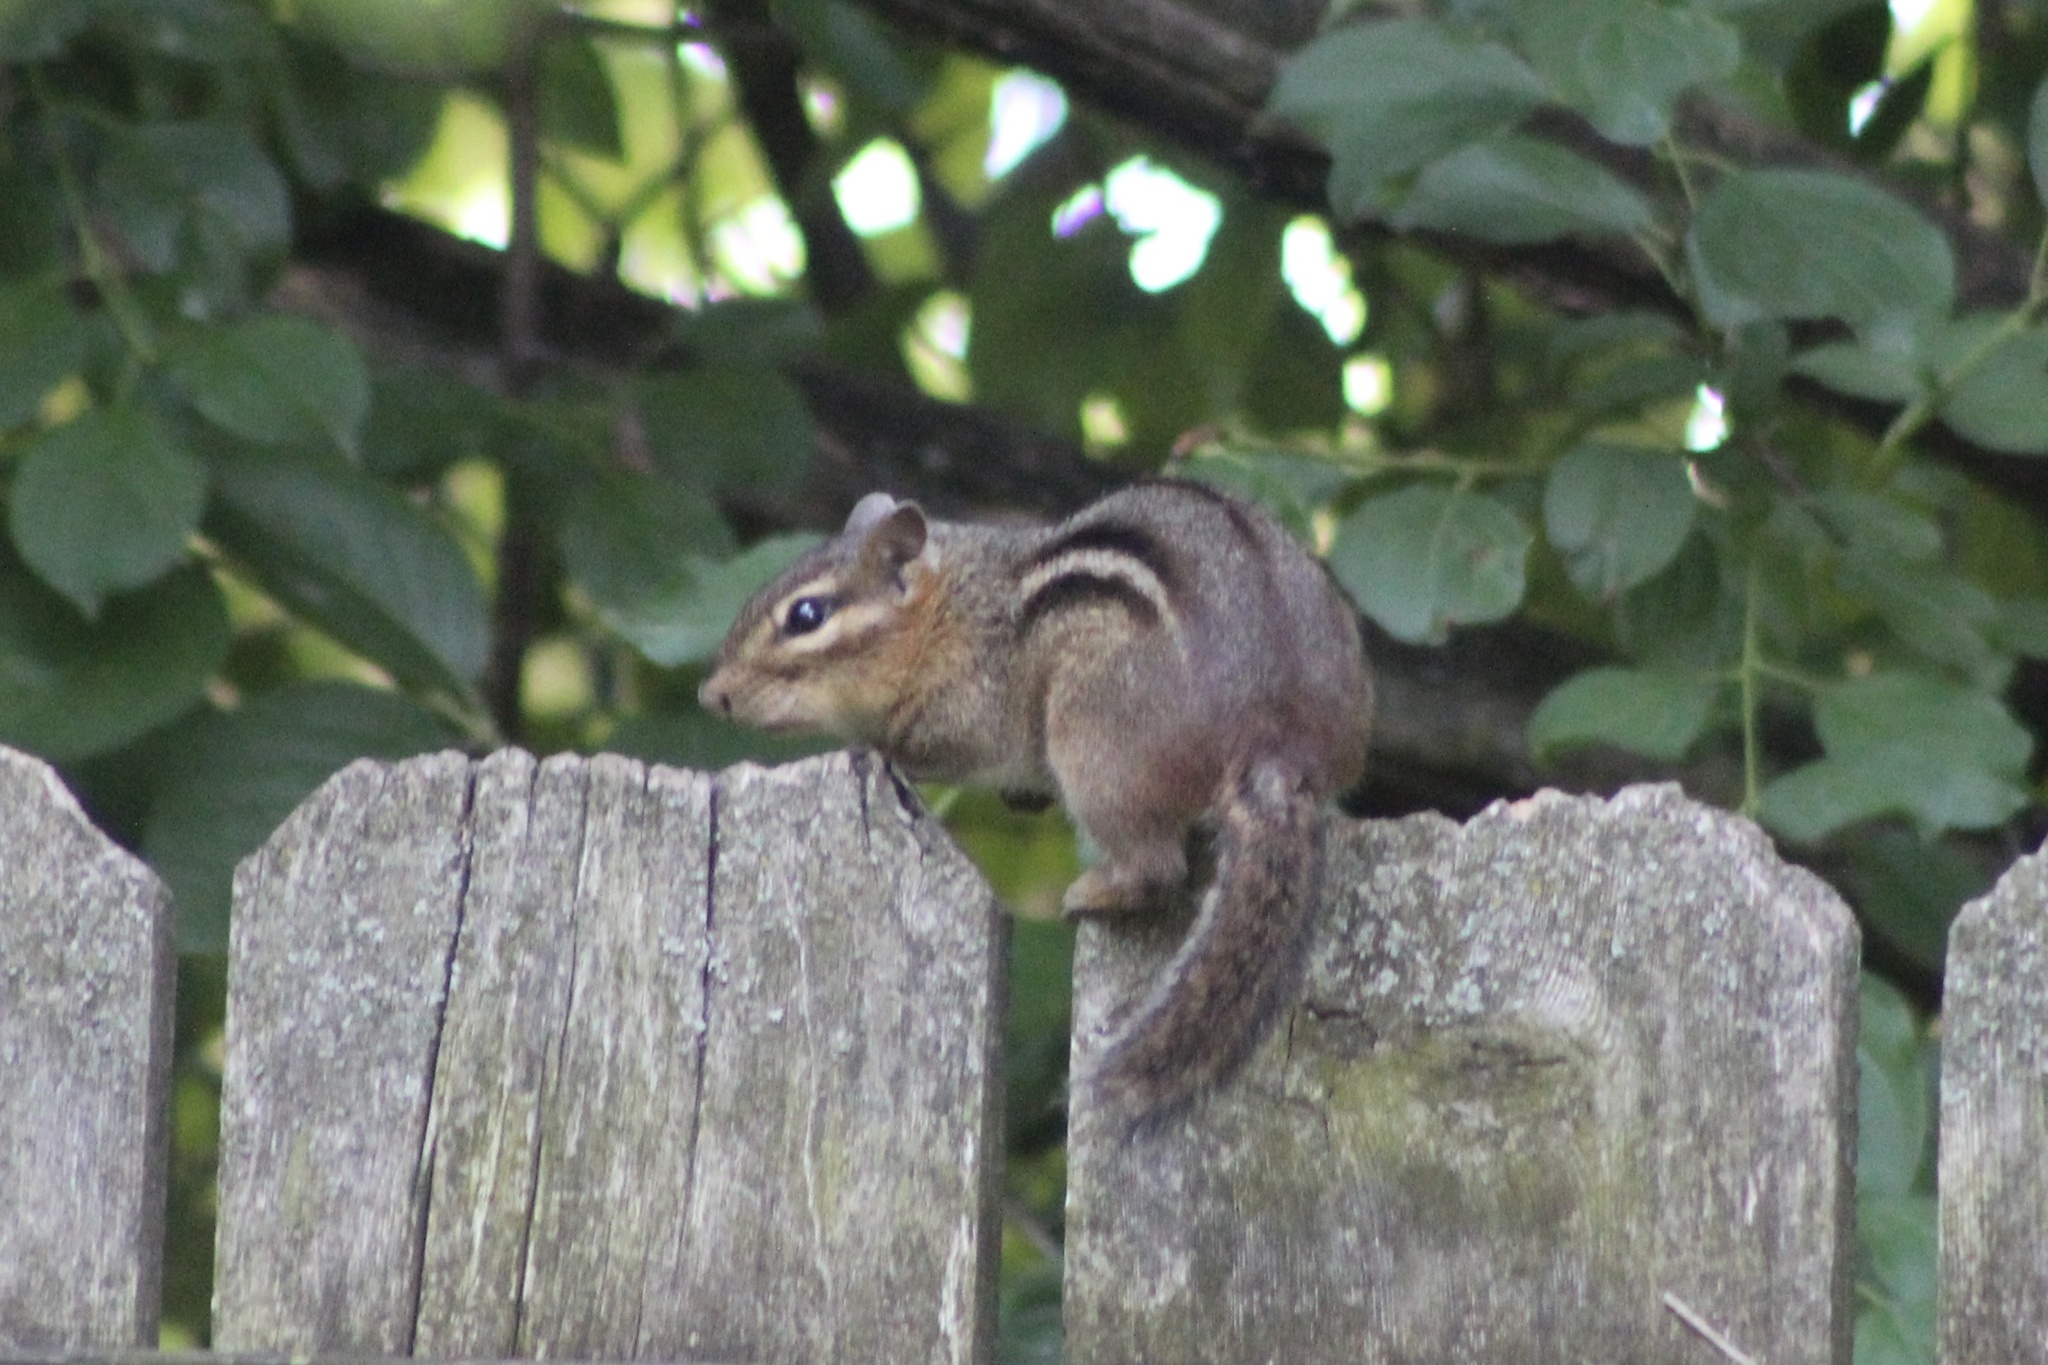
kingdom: Animalia
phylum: Chordata
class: Mammalia
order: Rodentia
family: Sciuridae
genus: Tamias
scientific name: Tamias striatus
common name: Eastern chipmunk
